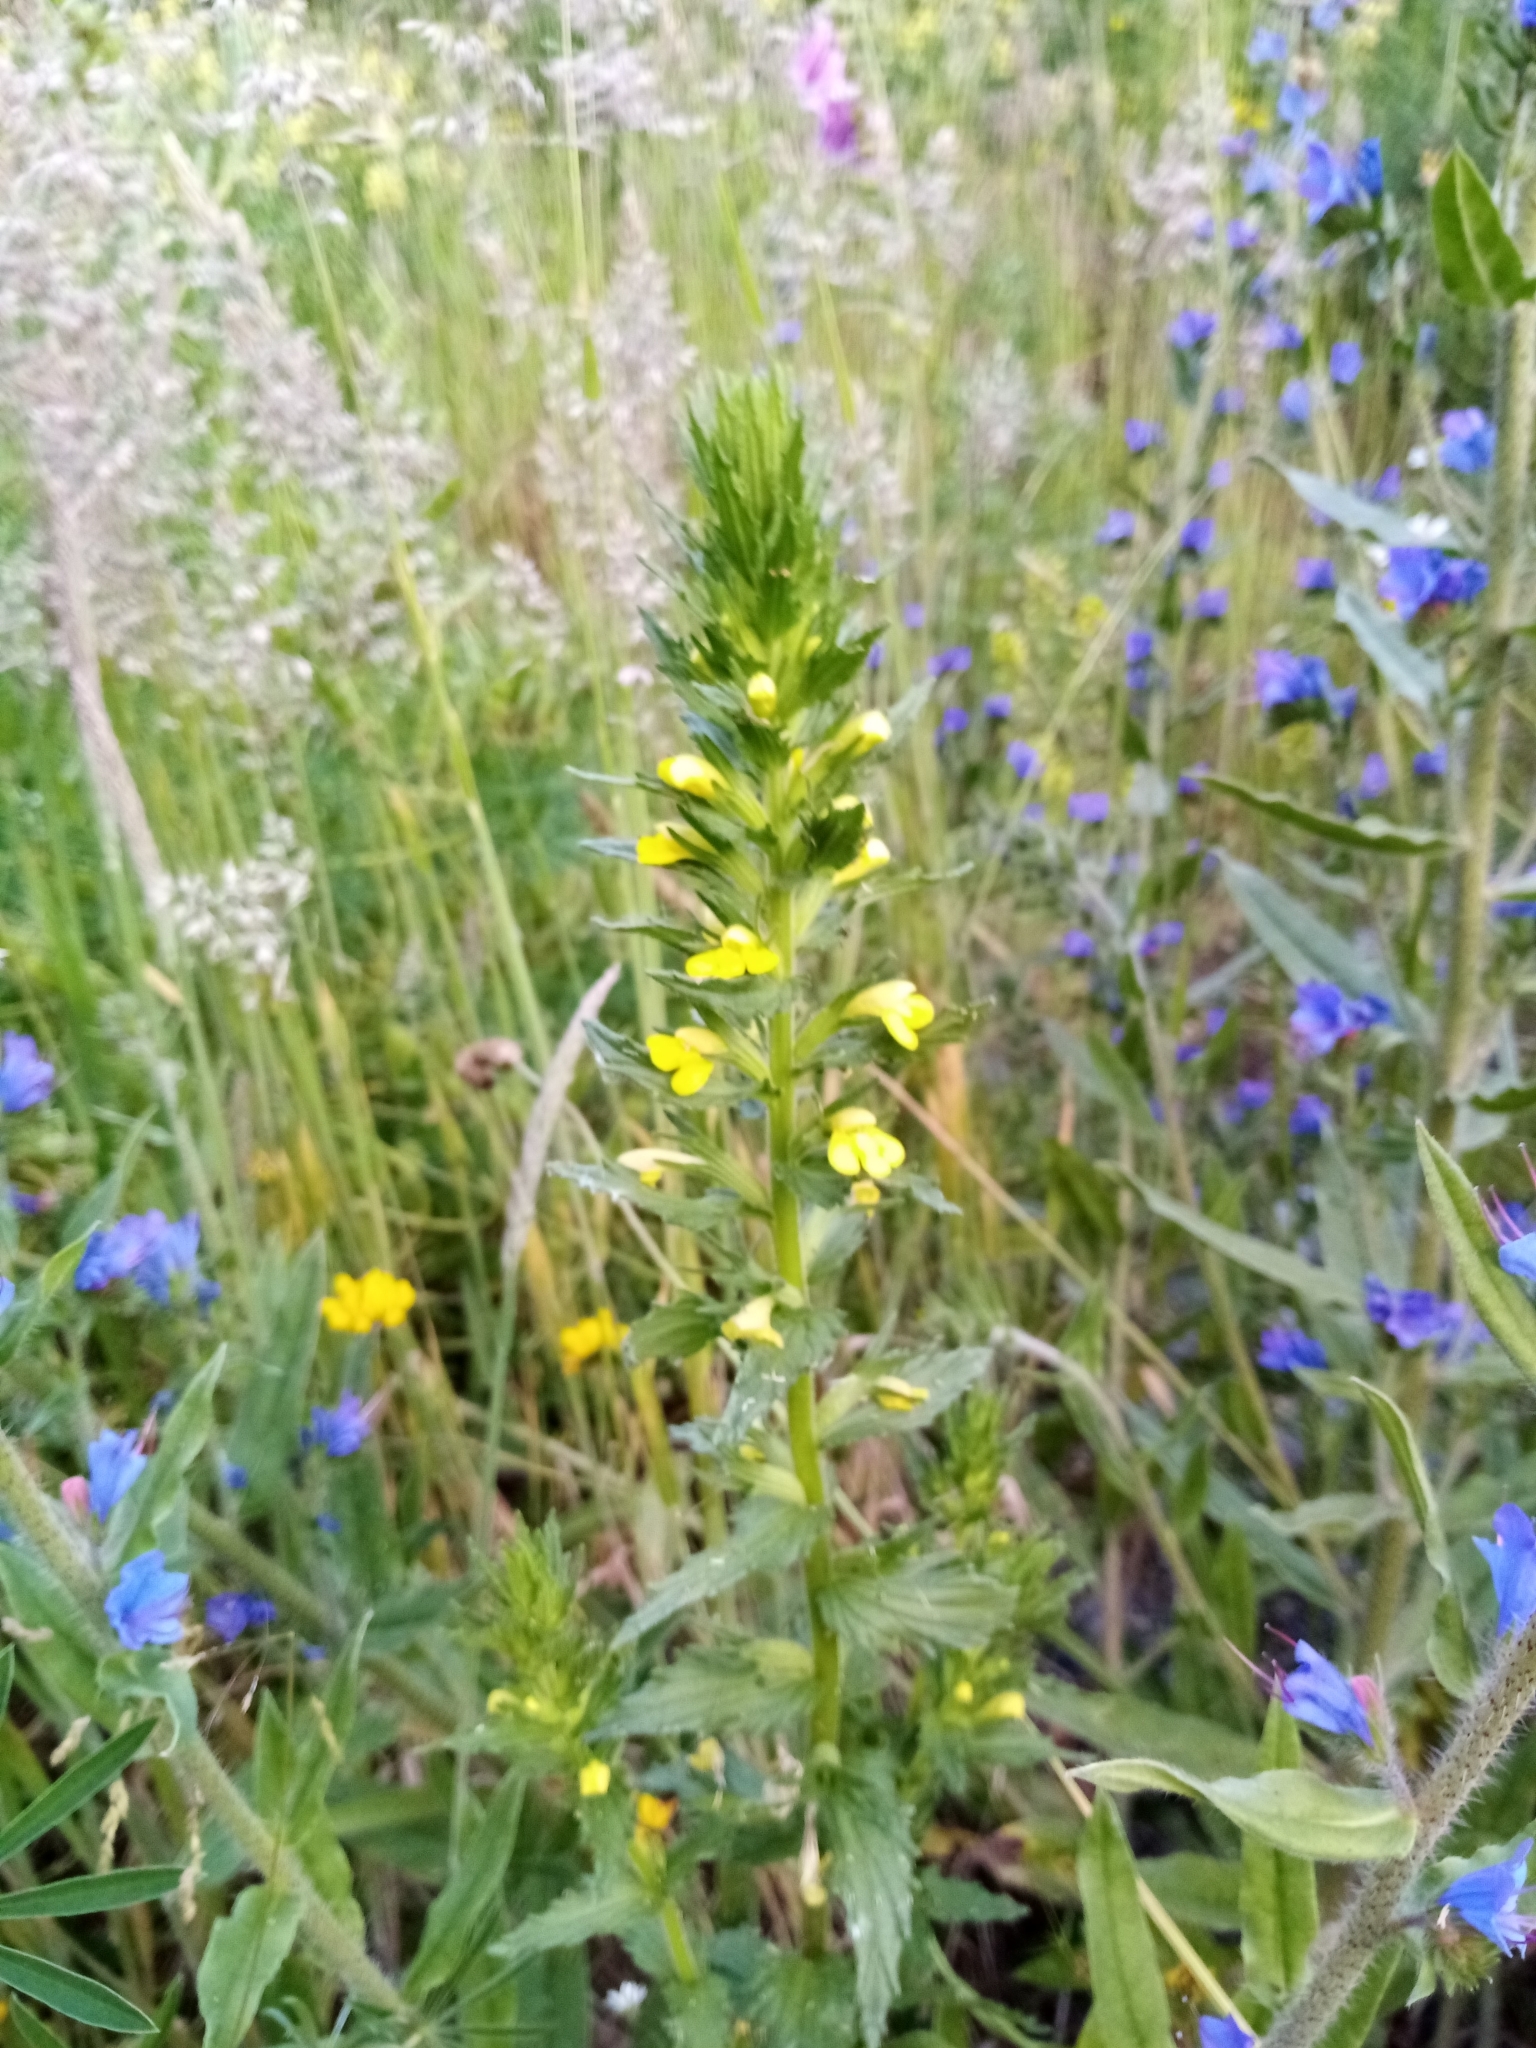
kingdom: Plantae
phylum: Tracheophyta
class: Magnoliopsida
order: Lamiales
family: Orobanchaceae
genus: Bellardia
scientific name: Bellardia viscosa
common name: Sticky parentucellia
